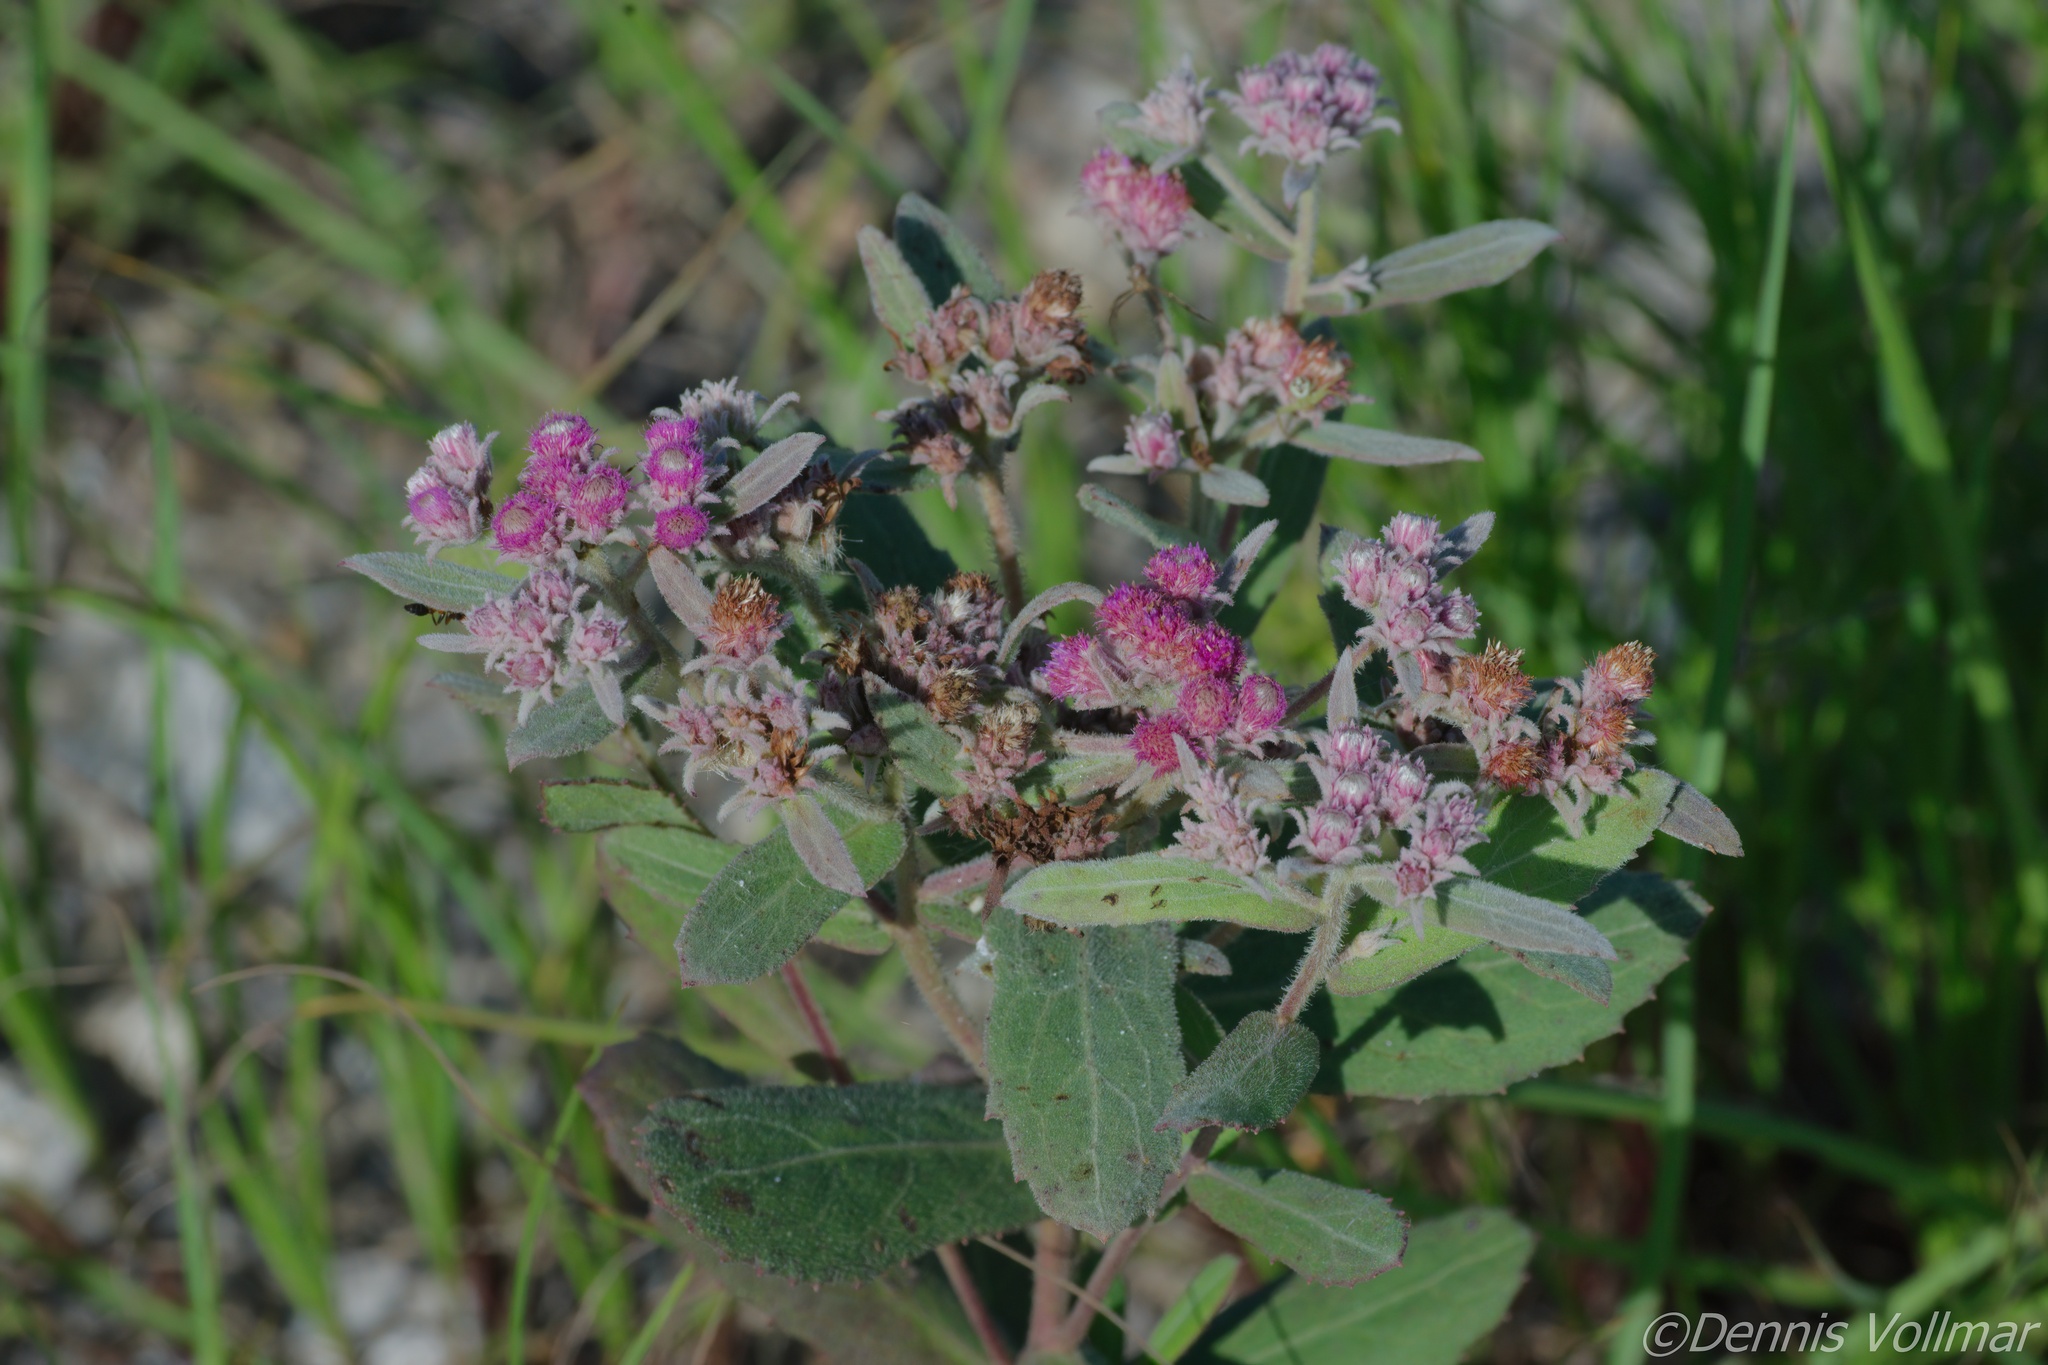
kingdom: Plantae
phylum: Tracheophyta
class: Magnoliopsida
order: Asterales
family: Asteraceae
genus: Pluchea
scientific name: Pluchea baccharis
